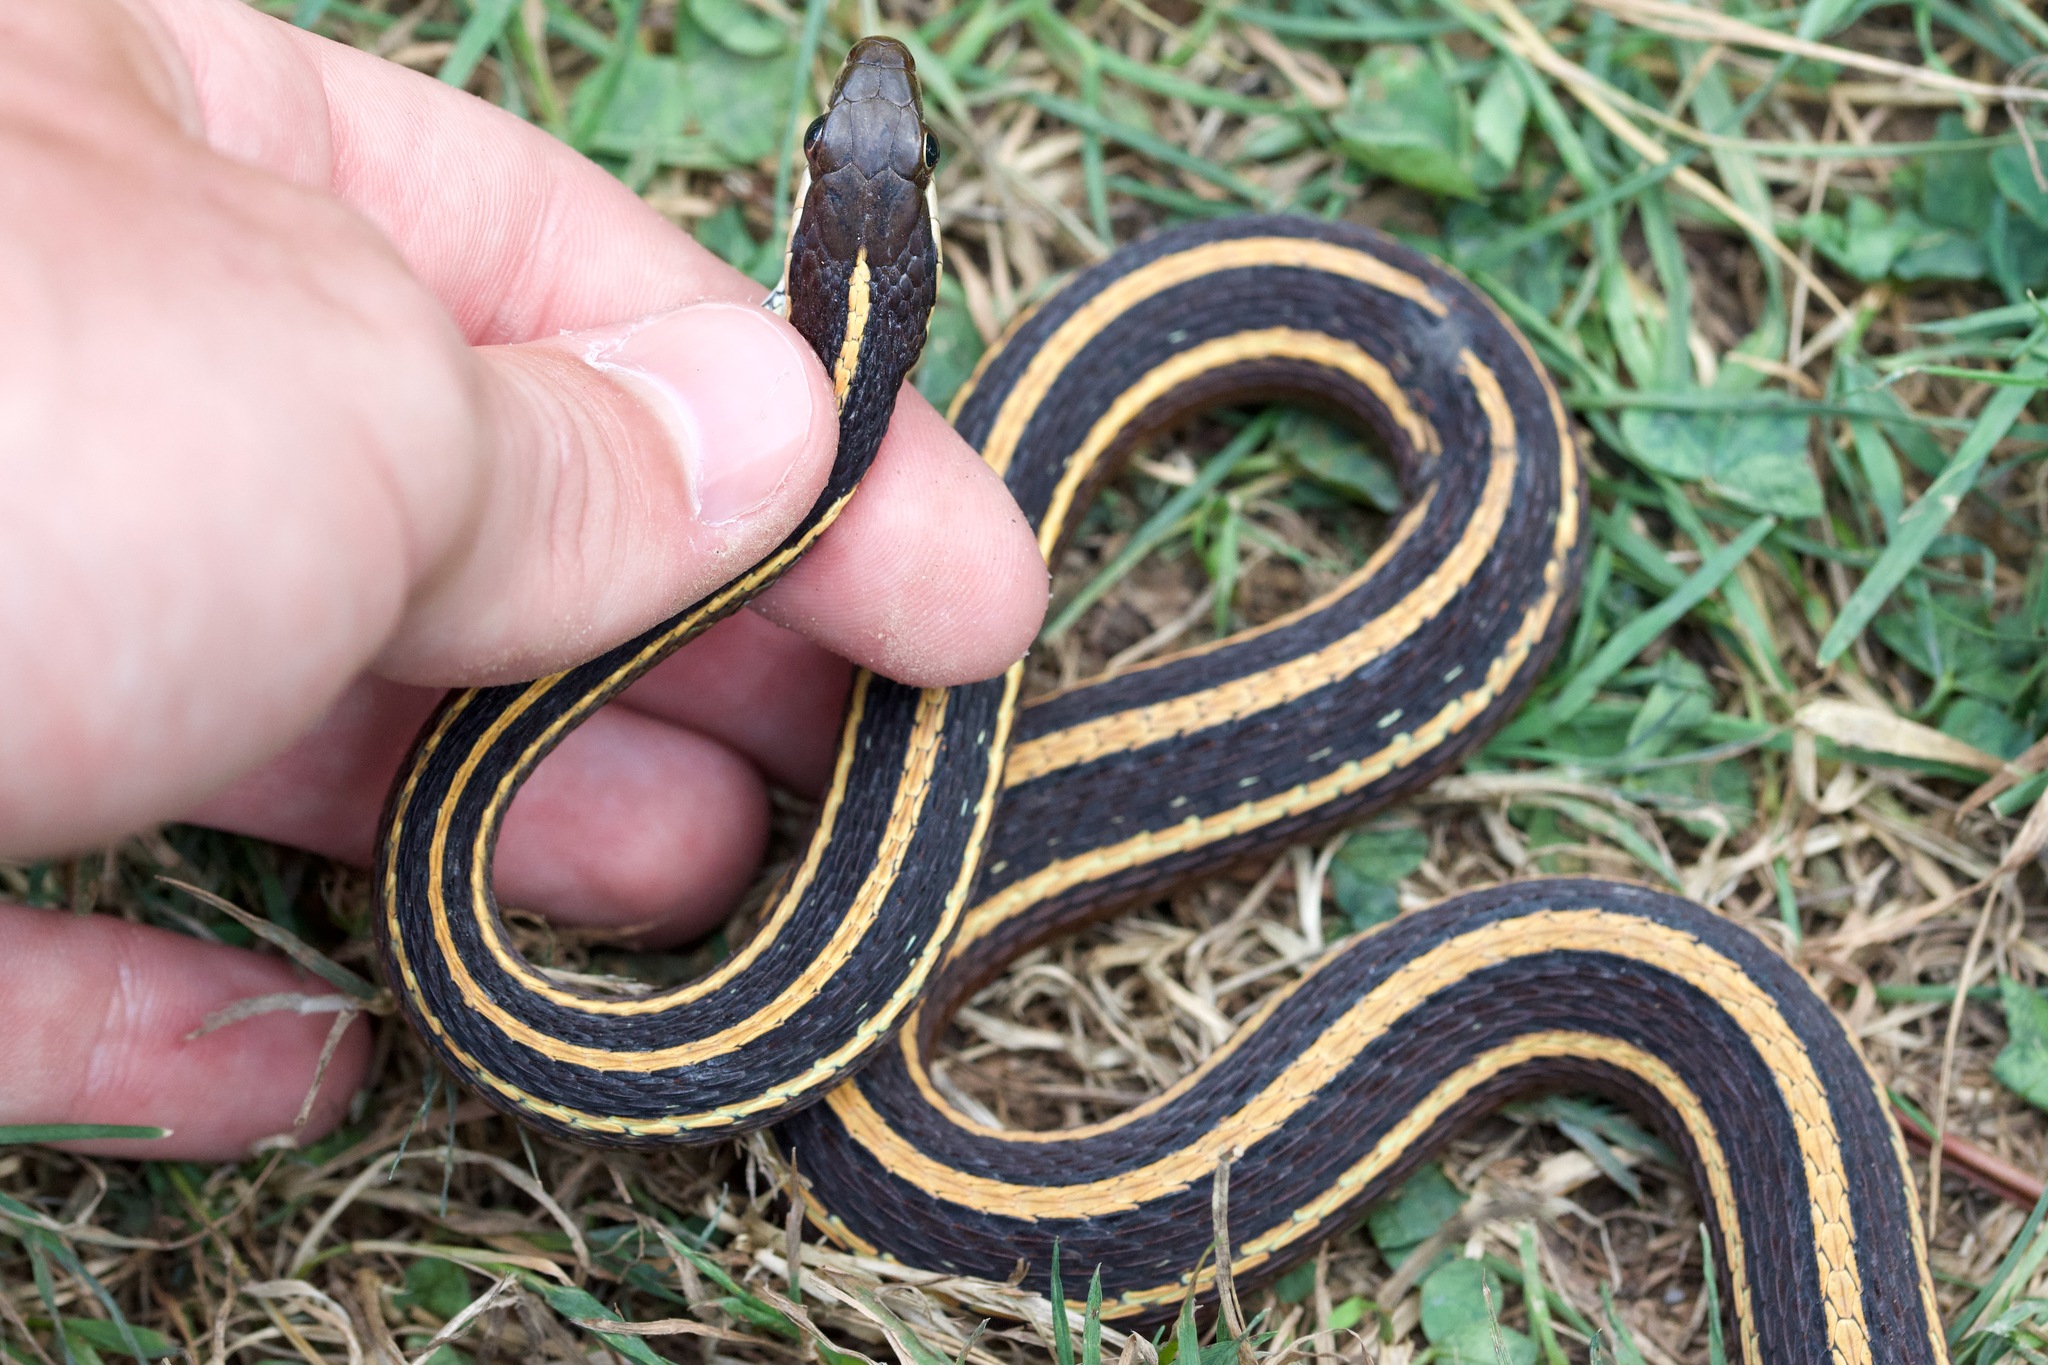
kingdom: Animalia
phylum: Chordata
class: Squamata
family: Colubridae
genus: Thamnophis
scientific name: Thamnophis saurita
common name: Eastern ribbonsnake
